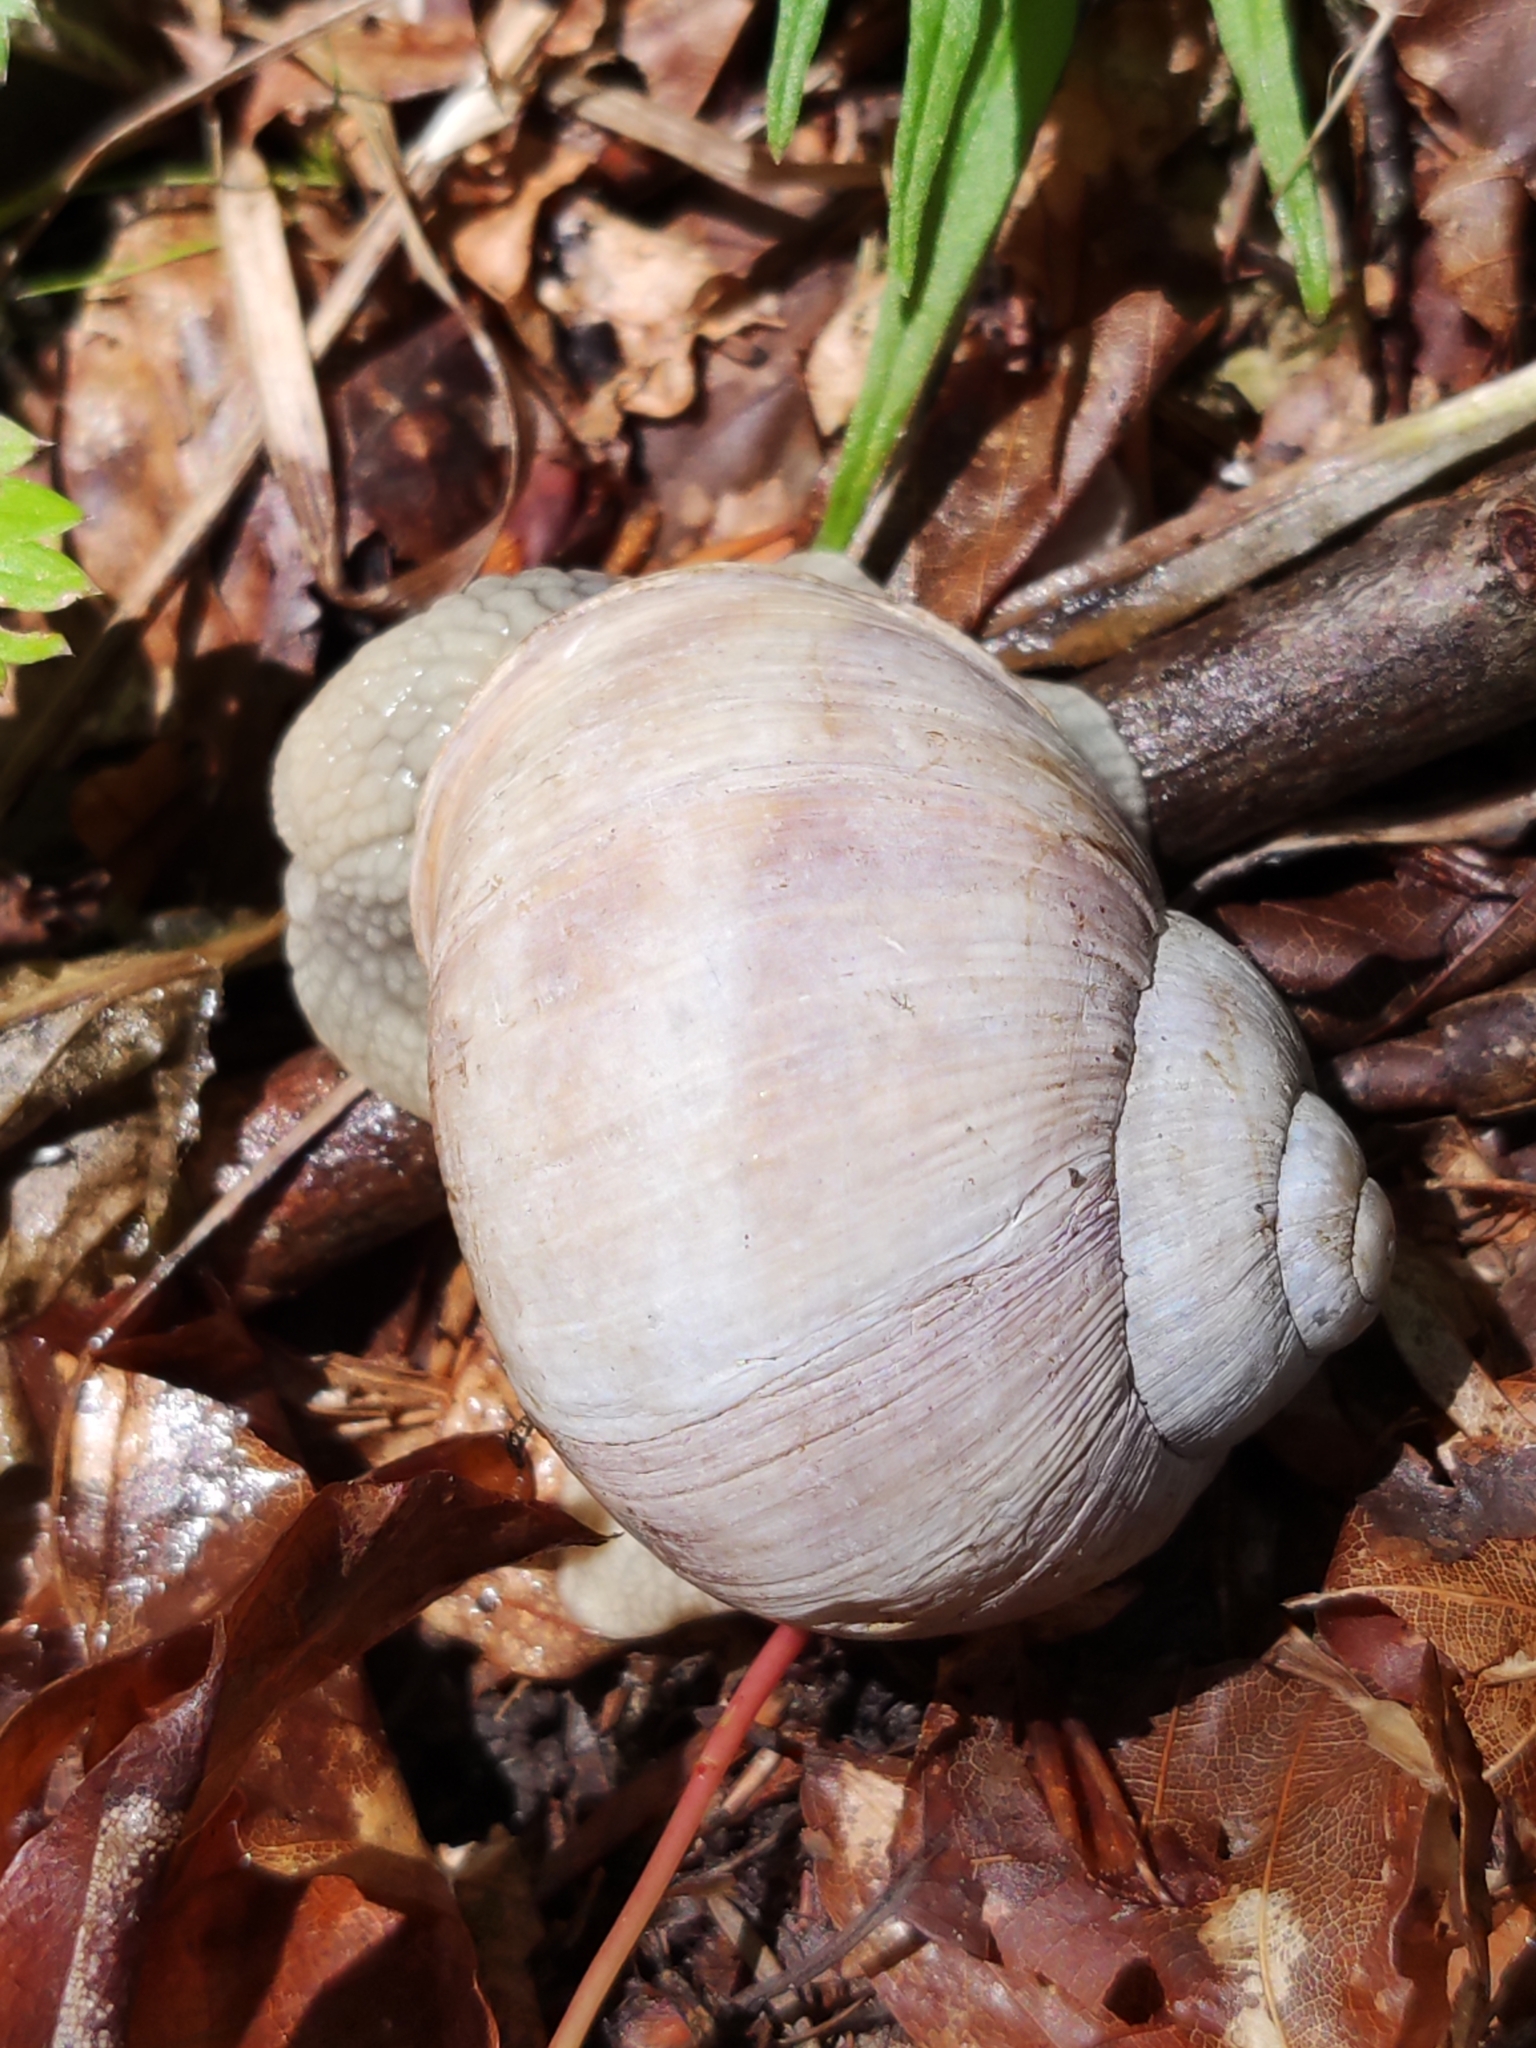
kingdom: Animalia
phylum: Mollusca
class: Gastropoda
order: Stylommatophora
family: Helicidae
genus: Helix
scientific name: Helix pomatia
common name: Roman snail
